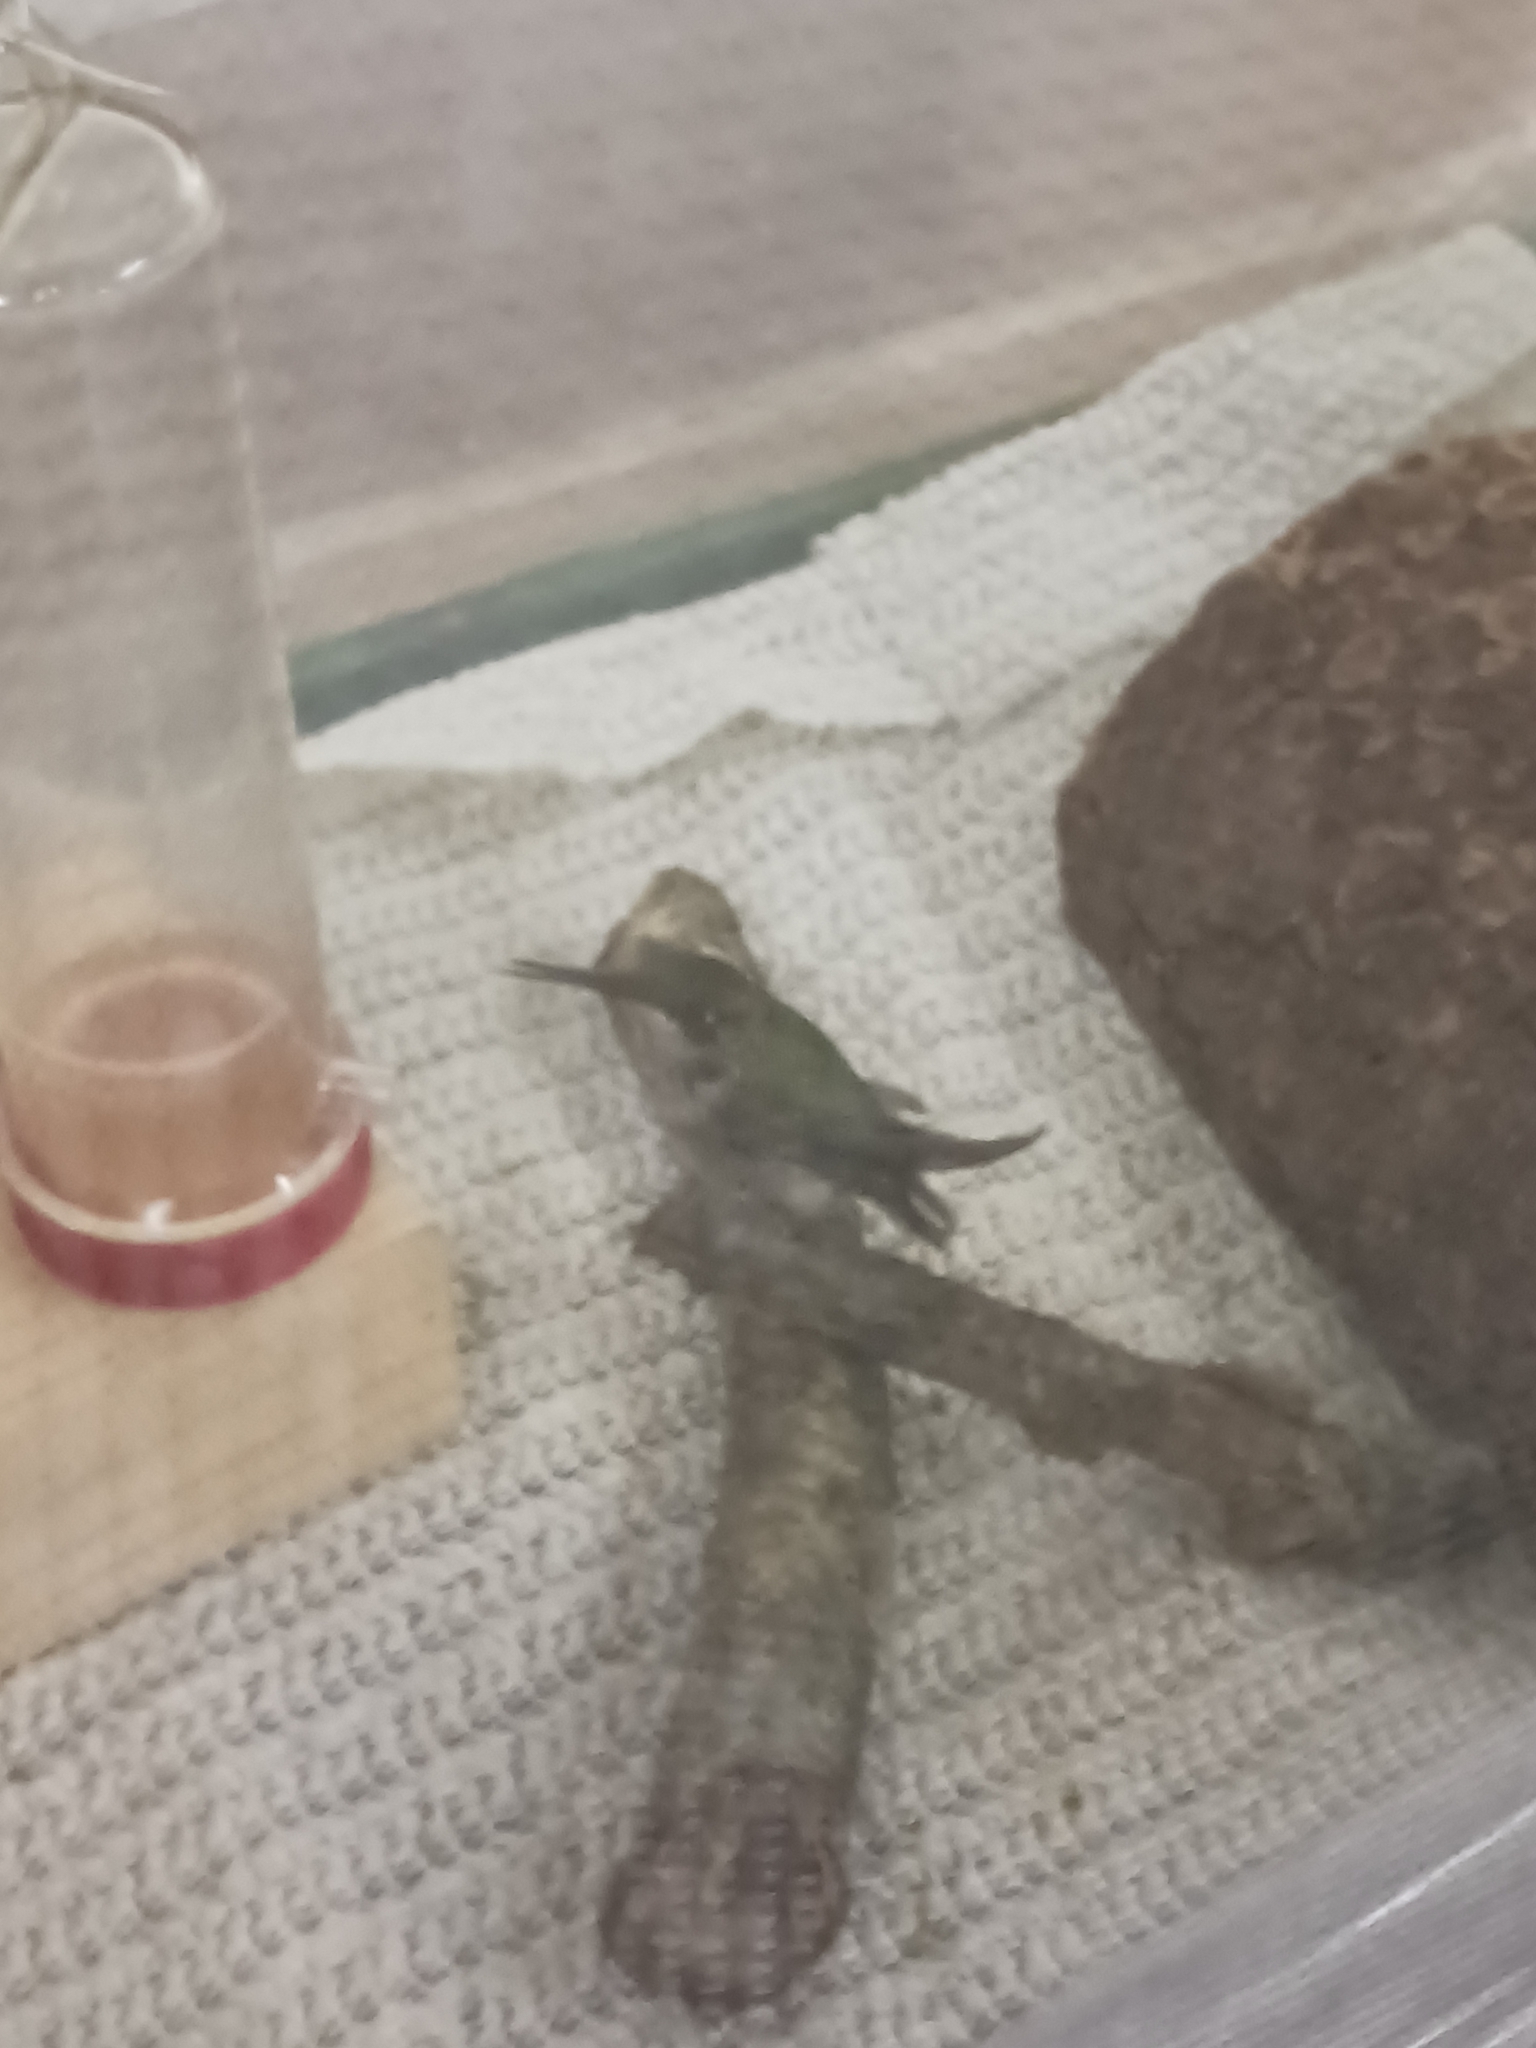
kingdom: Animalia
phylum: Chordata
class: Aves
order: Apodiformes
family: Trochilidae
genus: Archilochus
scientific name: Archilochus colubris
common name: Ruby-throated hummingbird
